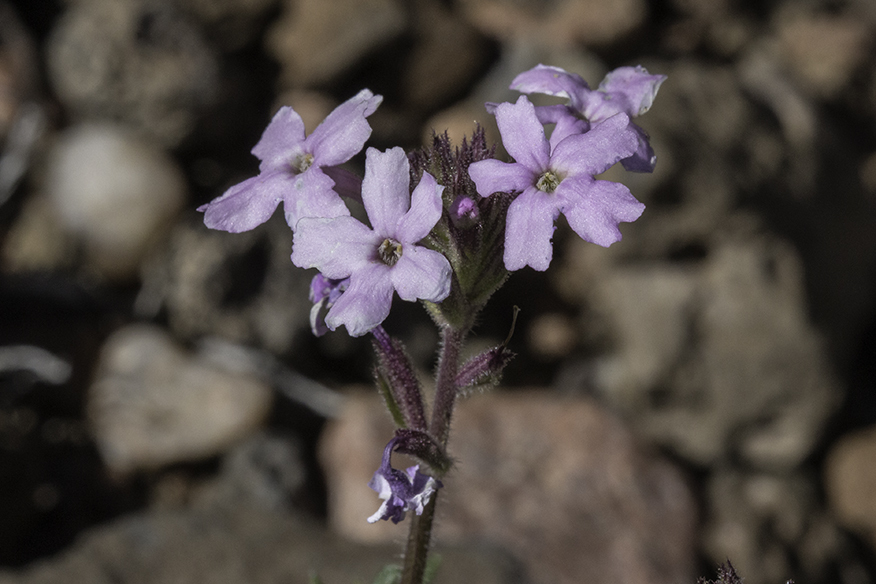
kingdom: Plantae
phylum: Tracheophyta
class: Magnoliopsida
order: Lamiales
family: Verbenaceae
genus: Verbena
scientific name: Verbena bipinnatifida
